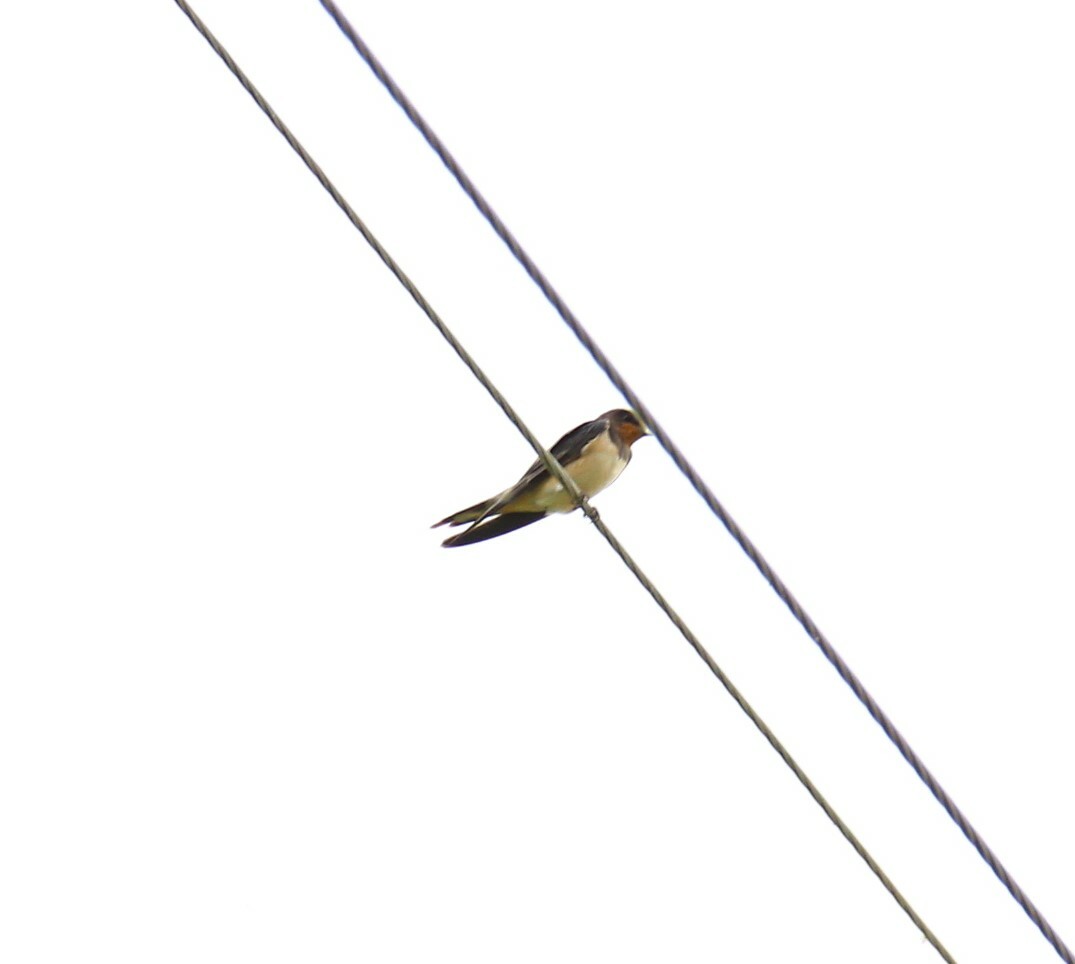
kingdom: Animalia
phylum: Chordata
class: Aves
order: Passeriformes
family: Hirundinidae
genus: Hirundo
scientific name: Hirundo rustica
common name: Barn swallow
